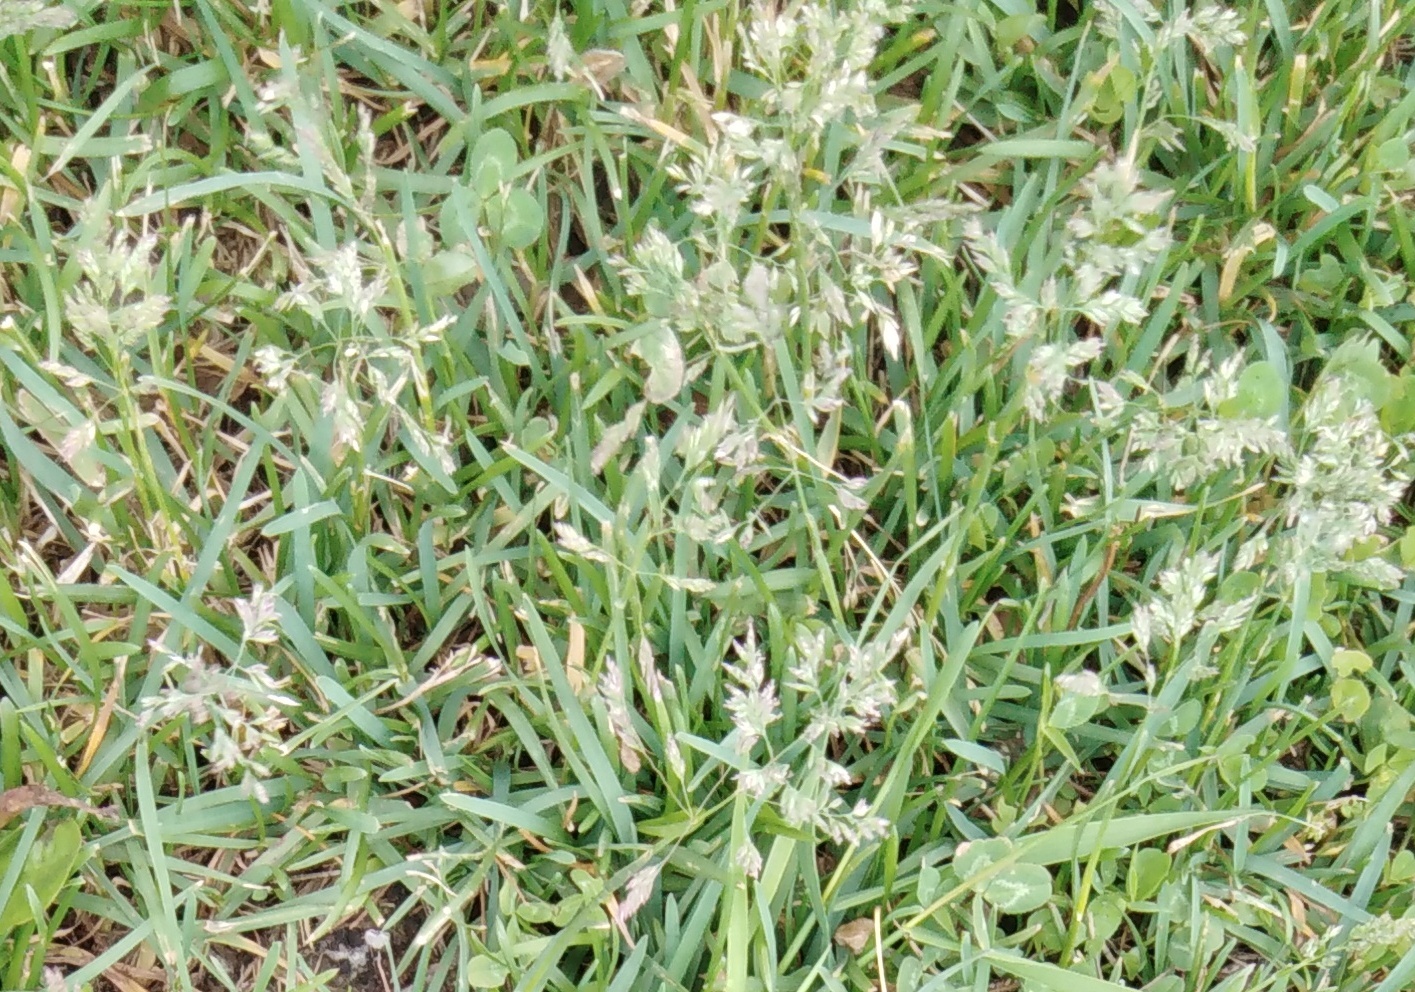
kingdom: Plantae
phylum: Tracheophyta
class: Liliopsida
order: Poales
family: Poaceae
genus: Poa
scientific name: Poa annua
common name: Annual bluegrass
